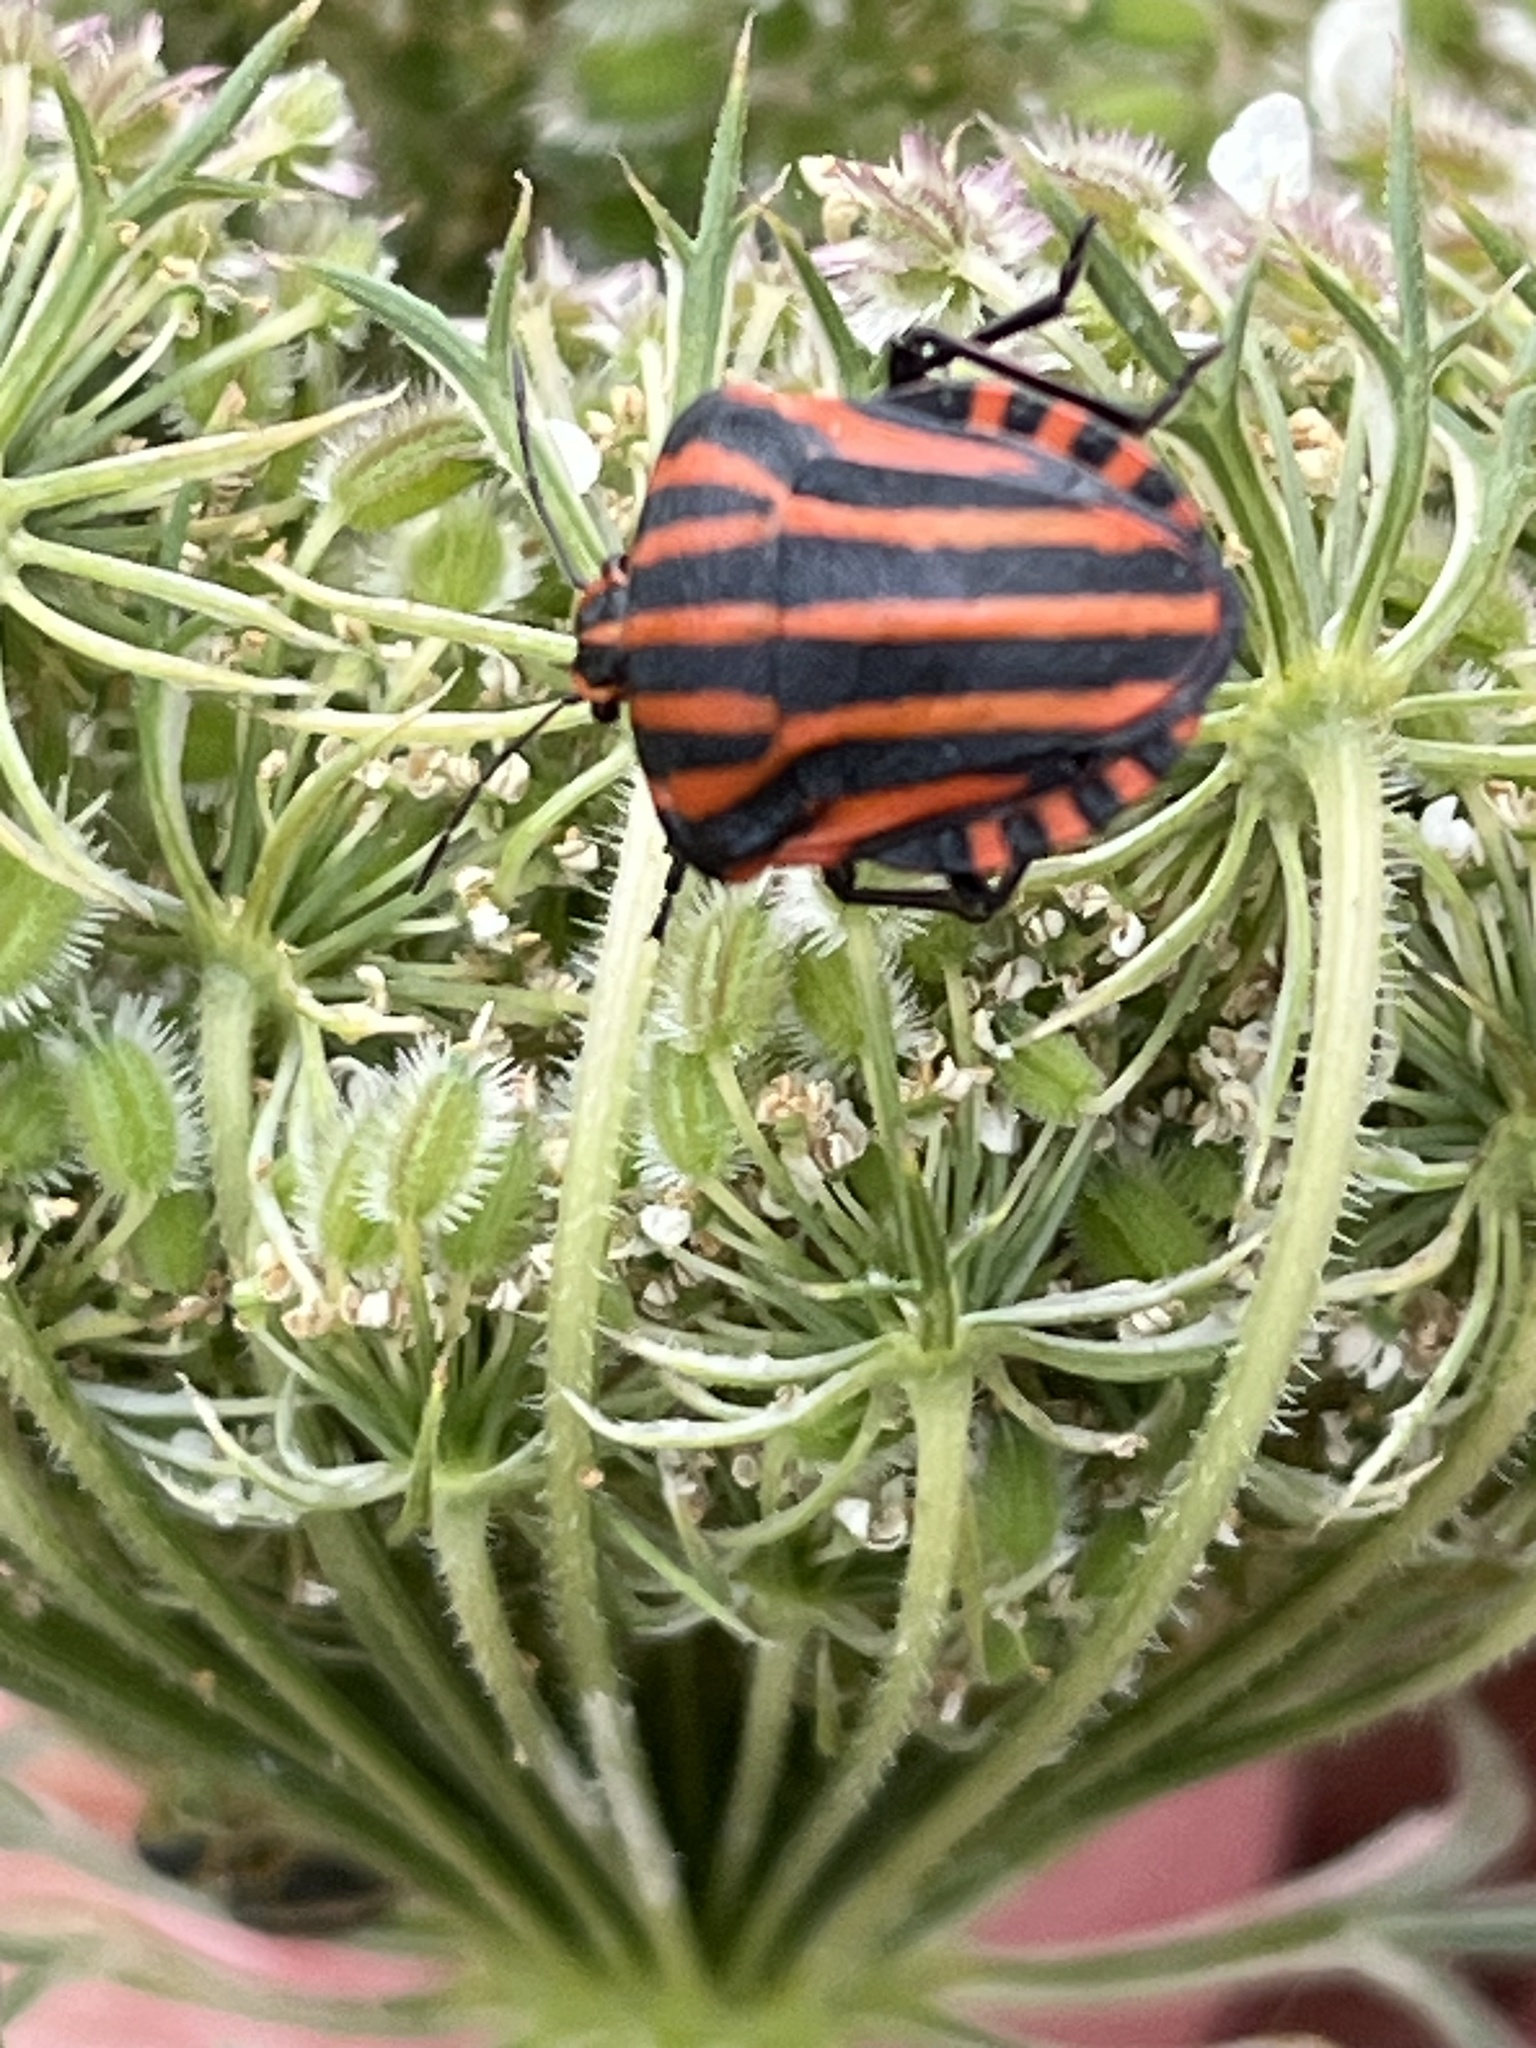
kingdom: Animalia
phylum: Arthropoda
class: Insecta
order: Hemiptera
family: Pentatomidae
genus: Graphosoma
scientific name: Graphosoma italicum
